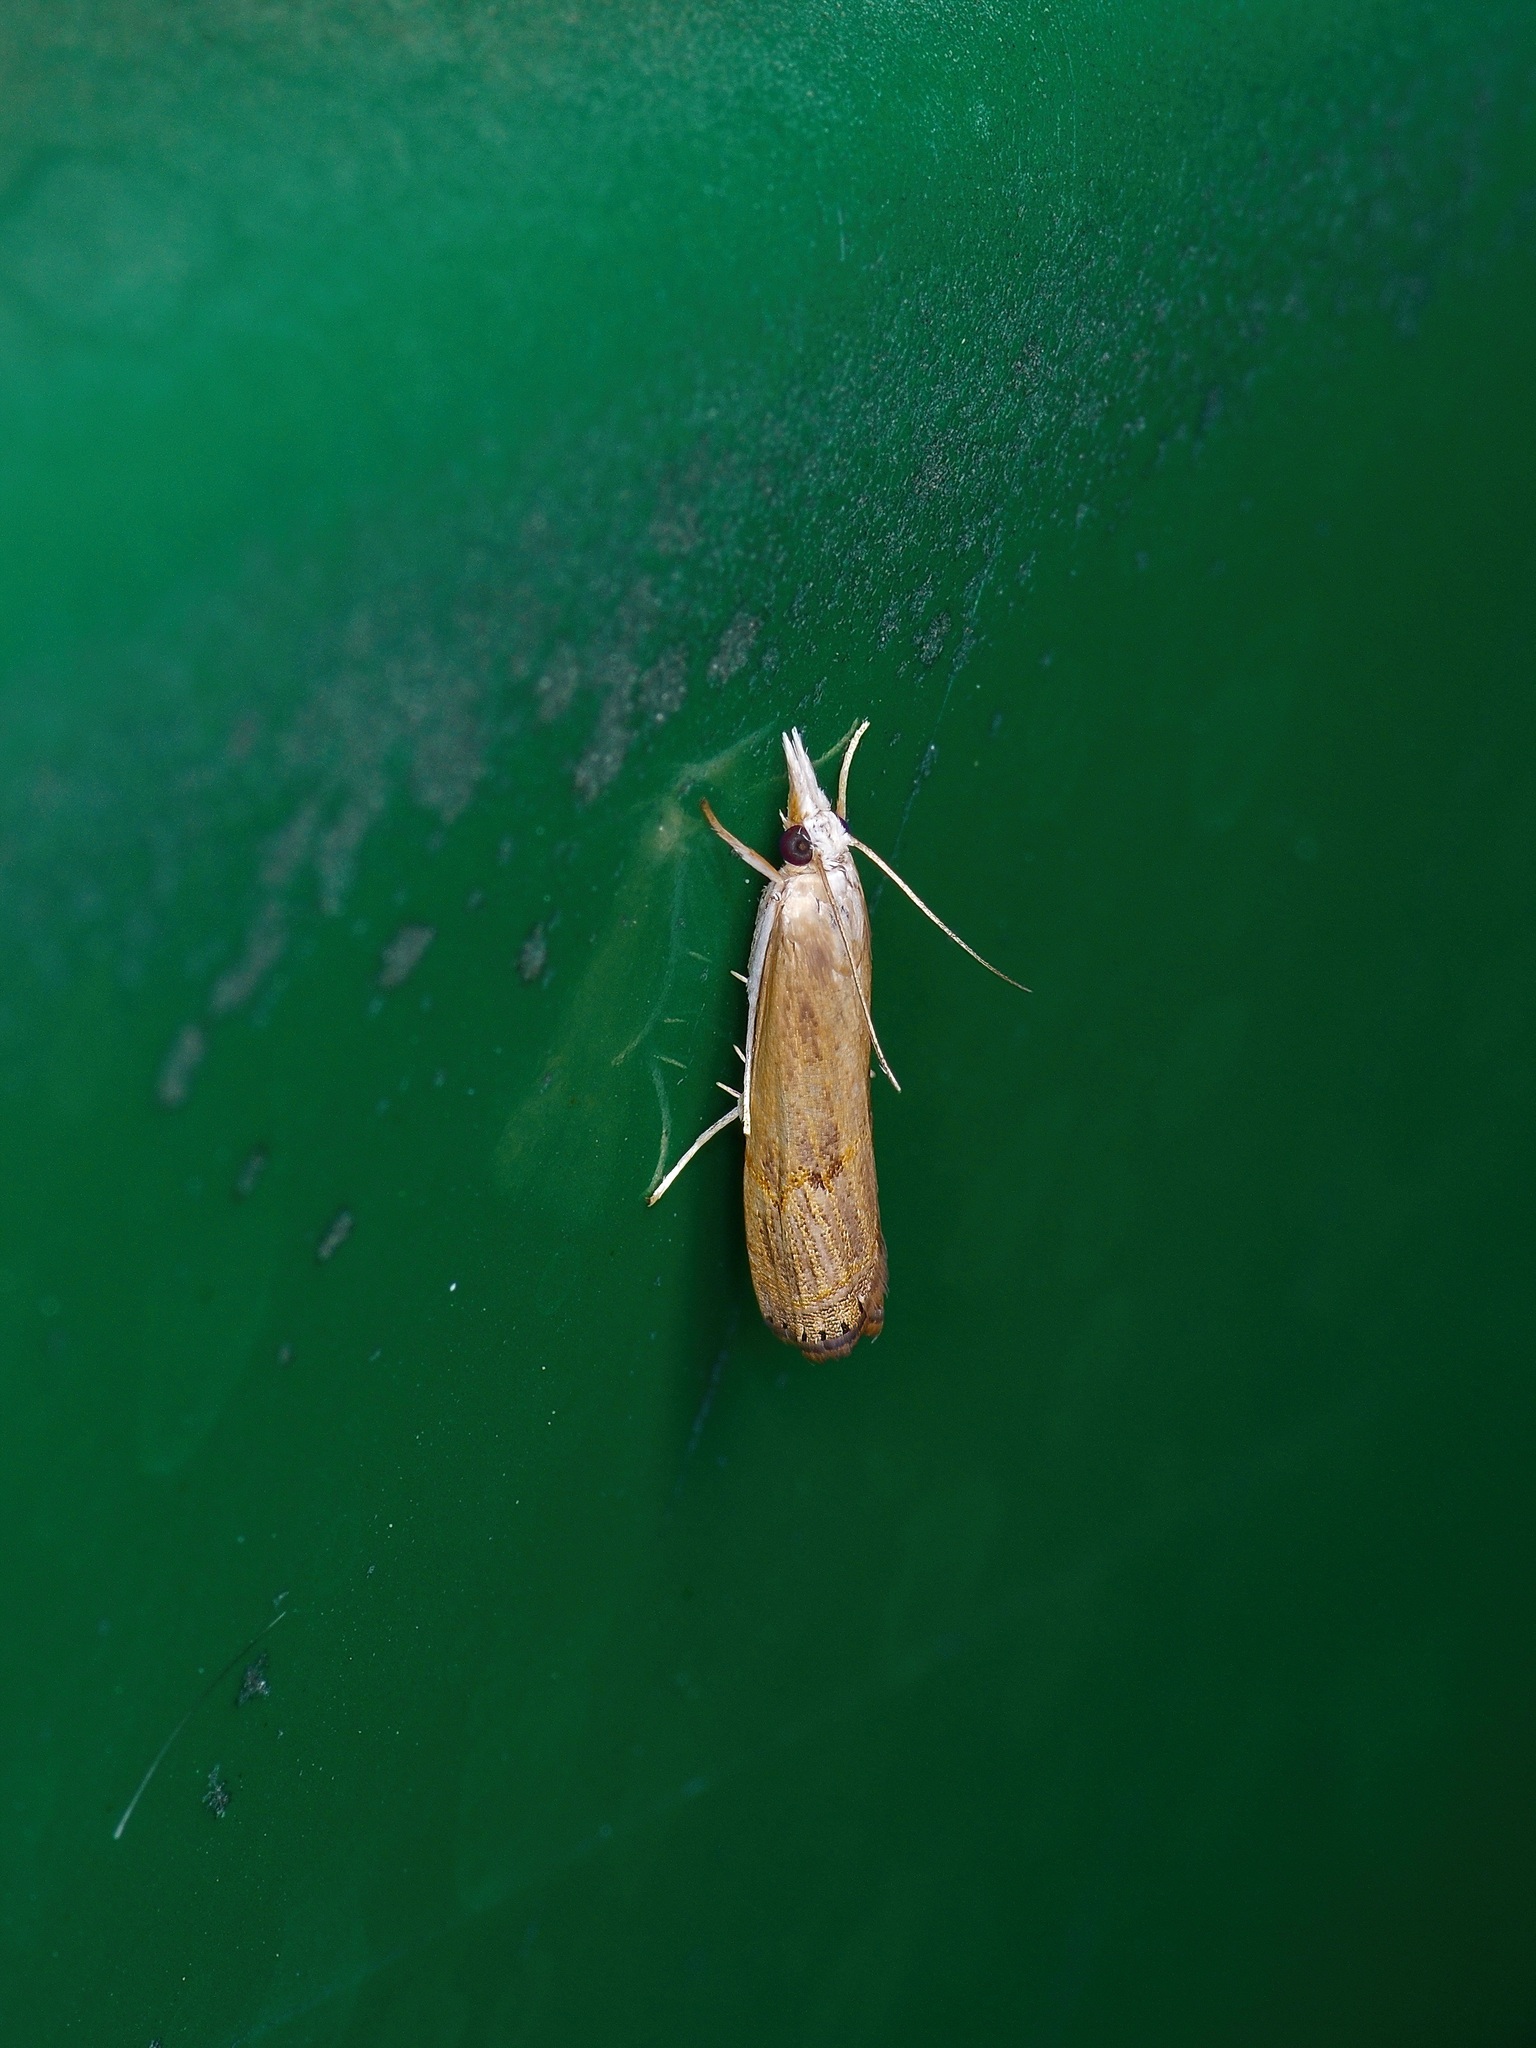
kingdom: Animalia
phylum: Arthropoda
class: Insecta
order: Lepidoptera
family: Crambidae
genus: Parapediasia
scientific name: Parapediasia teterellus
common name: Bluegrass webworm moth
